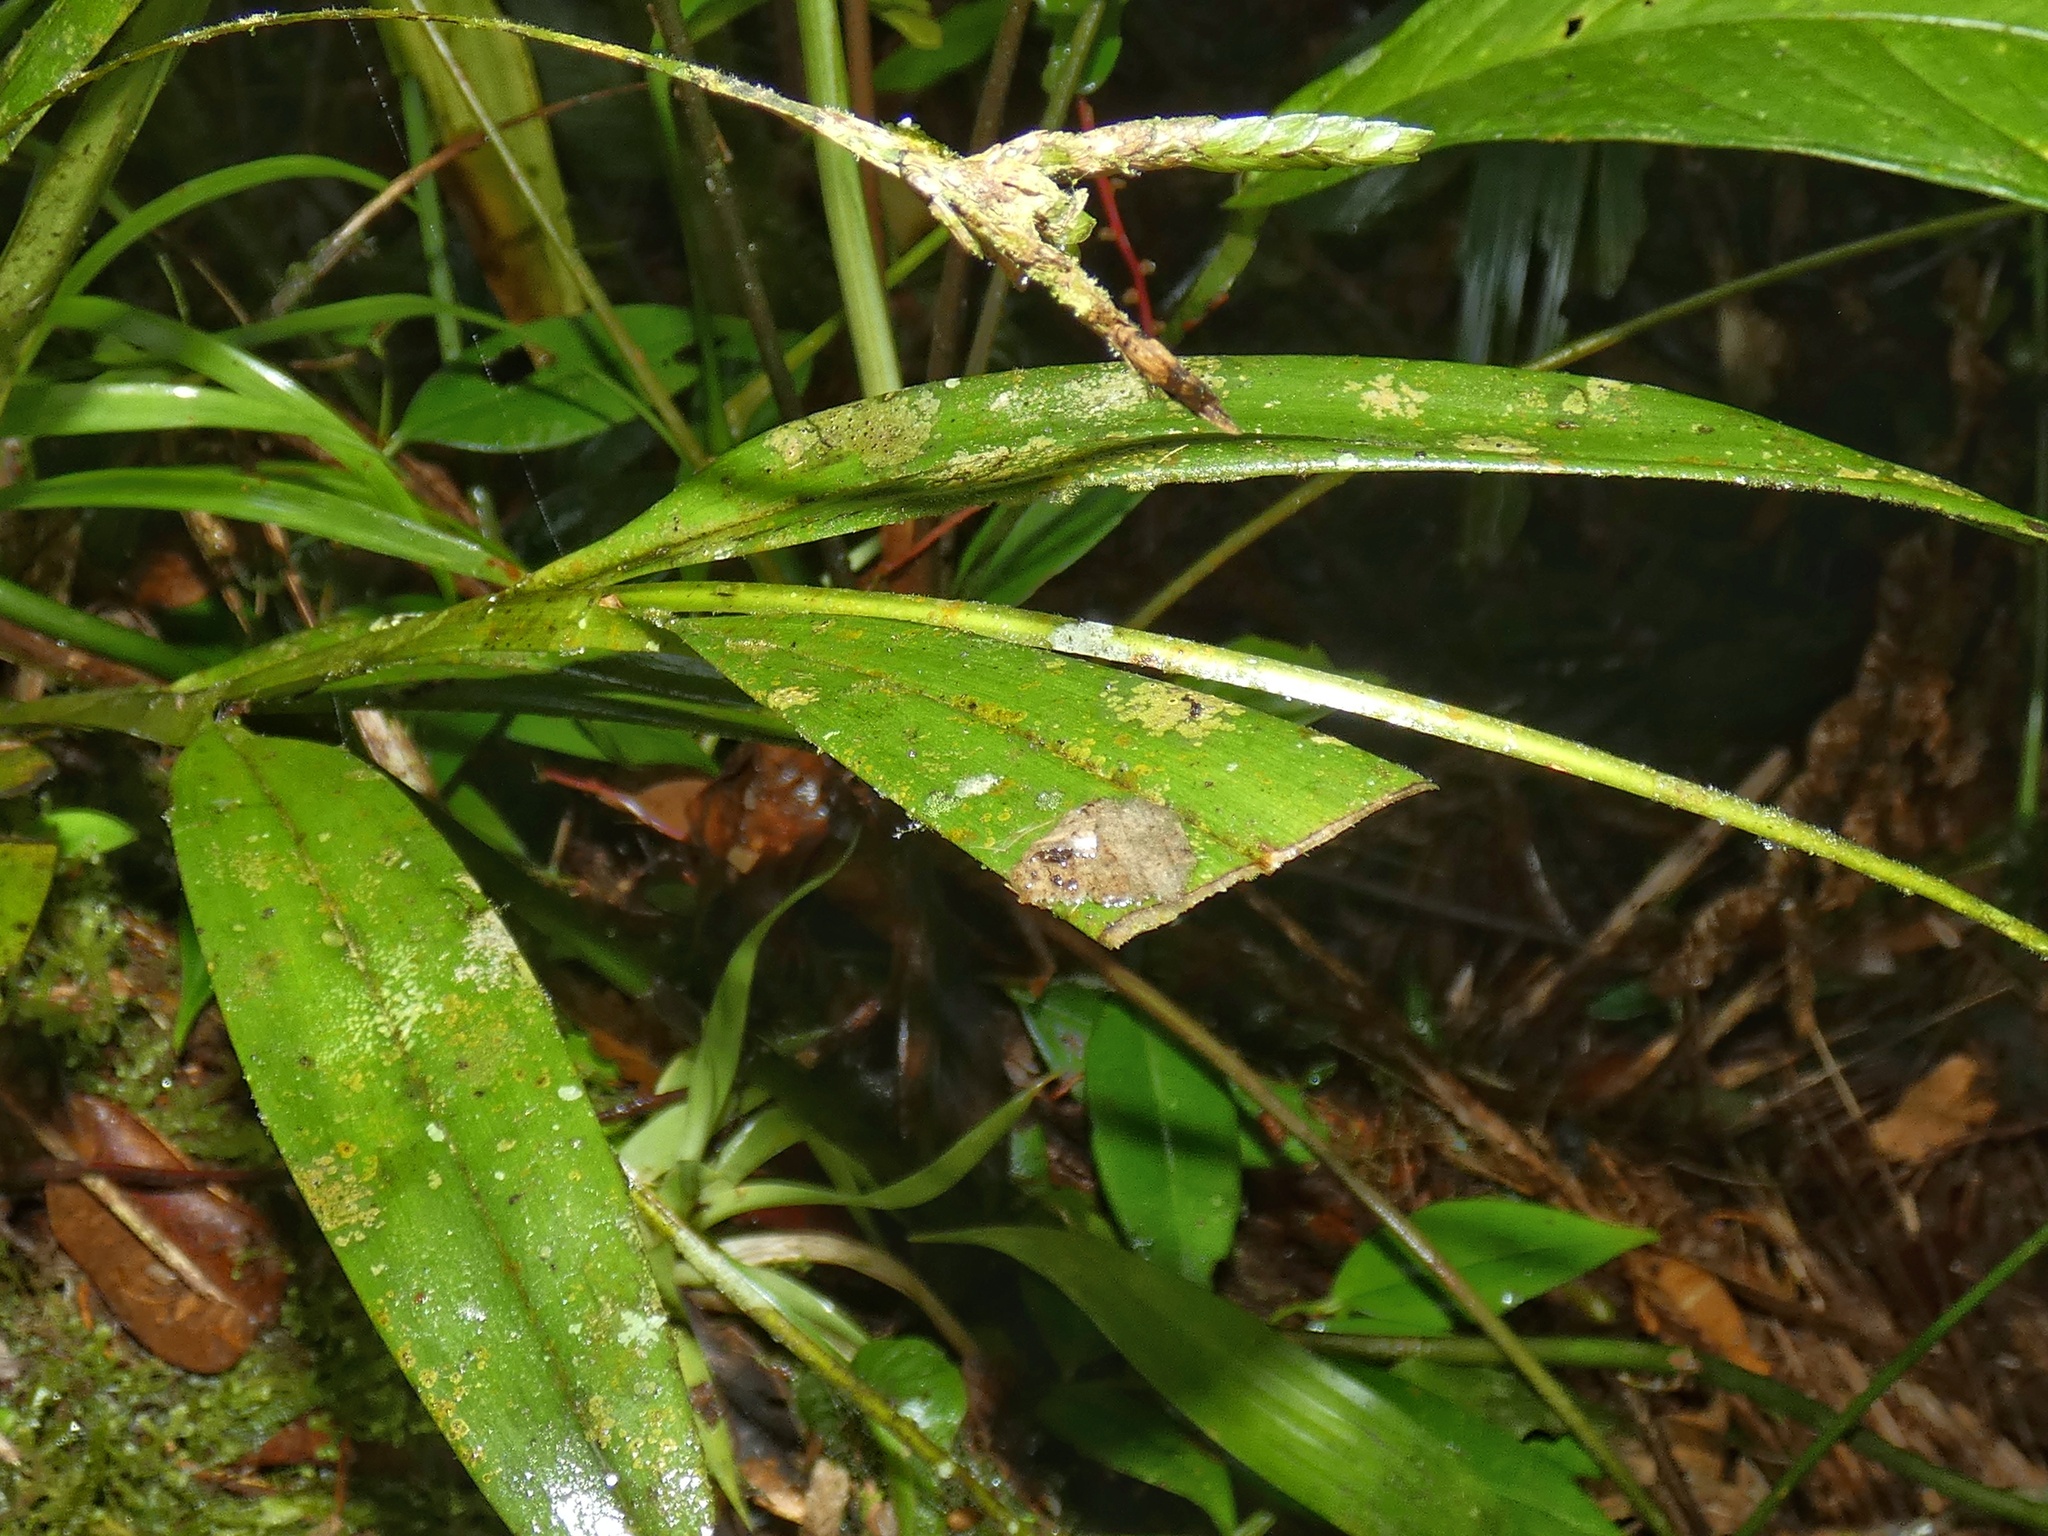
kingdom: Plantae
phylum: Tracheophyta
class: Liliopsida
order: Asparagales
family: Orchidaceae
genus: Epidendrum
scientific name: Epidendrum maduroi
